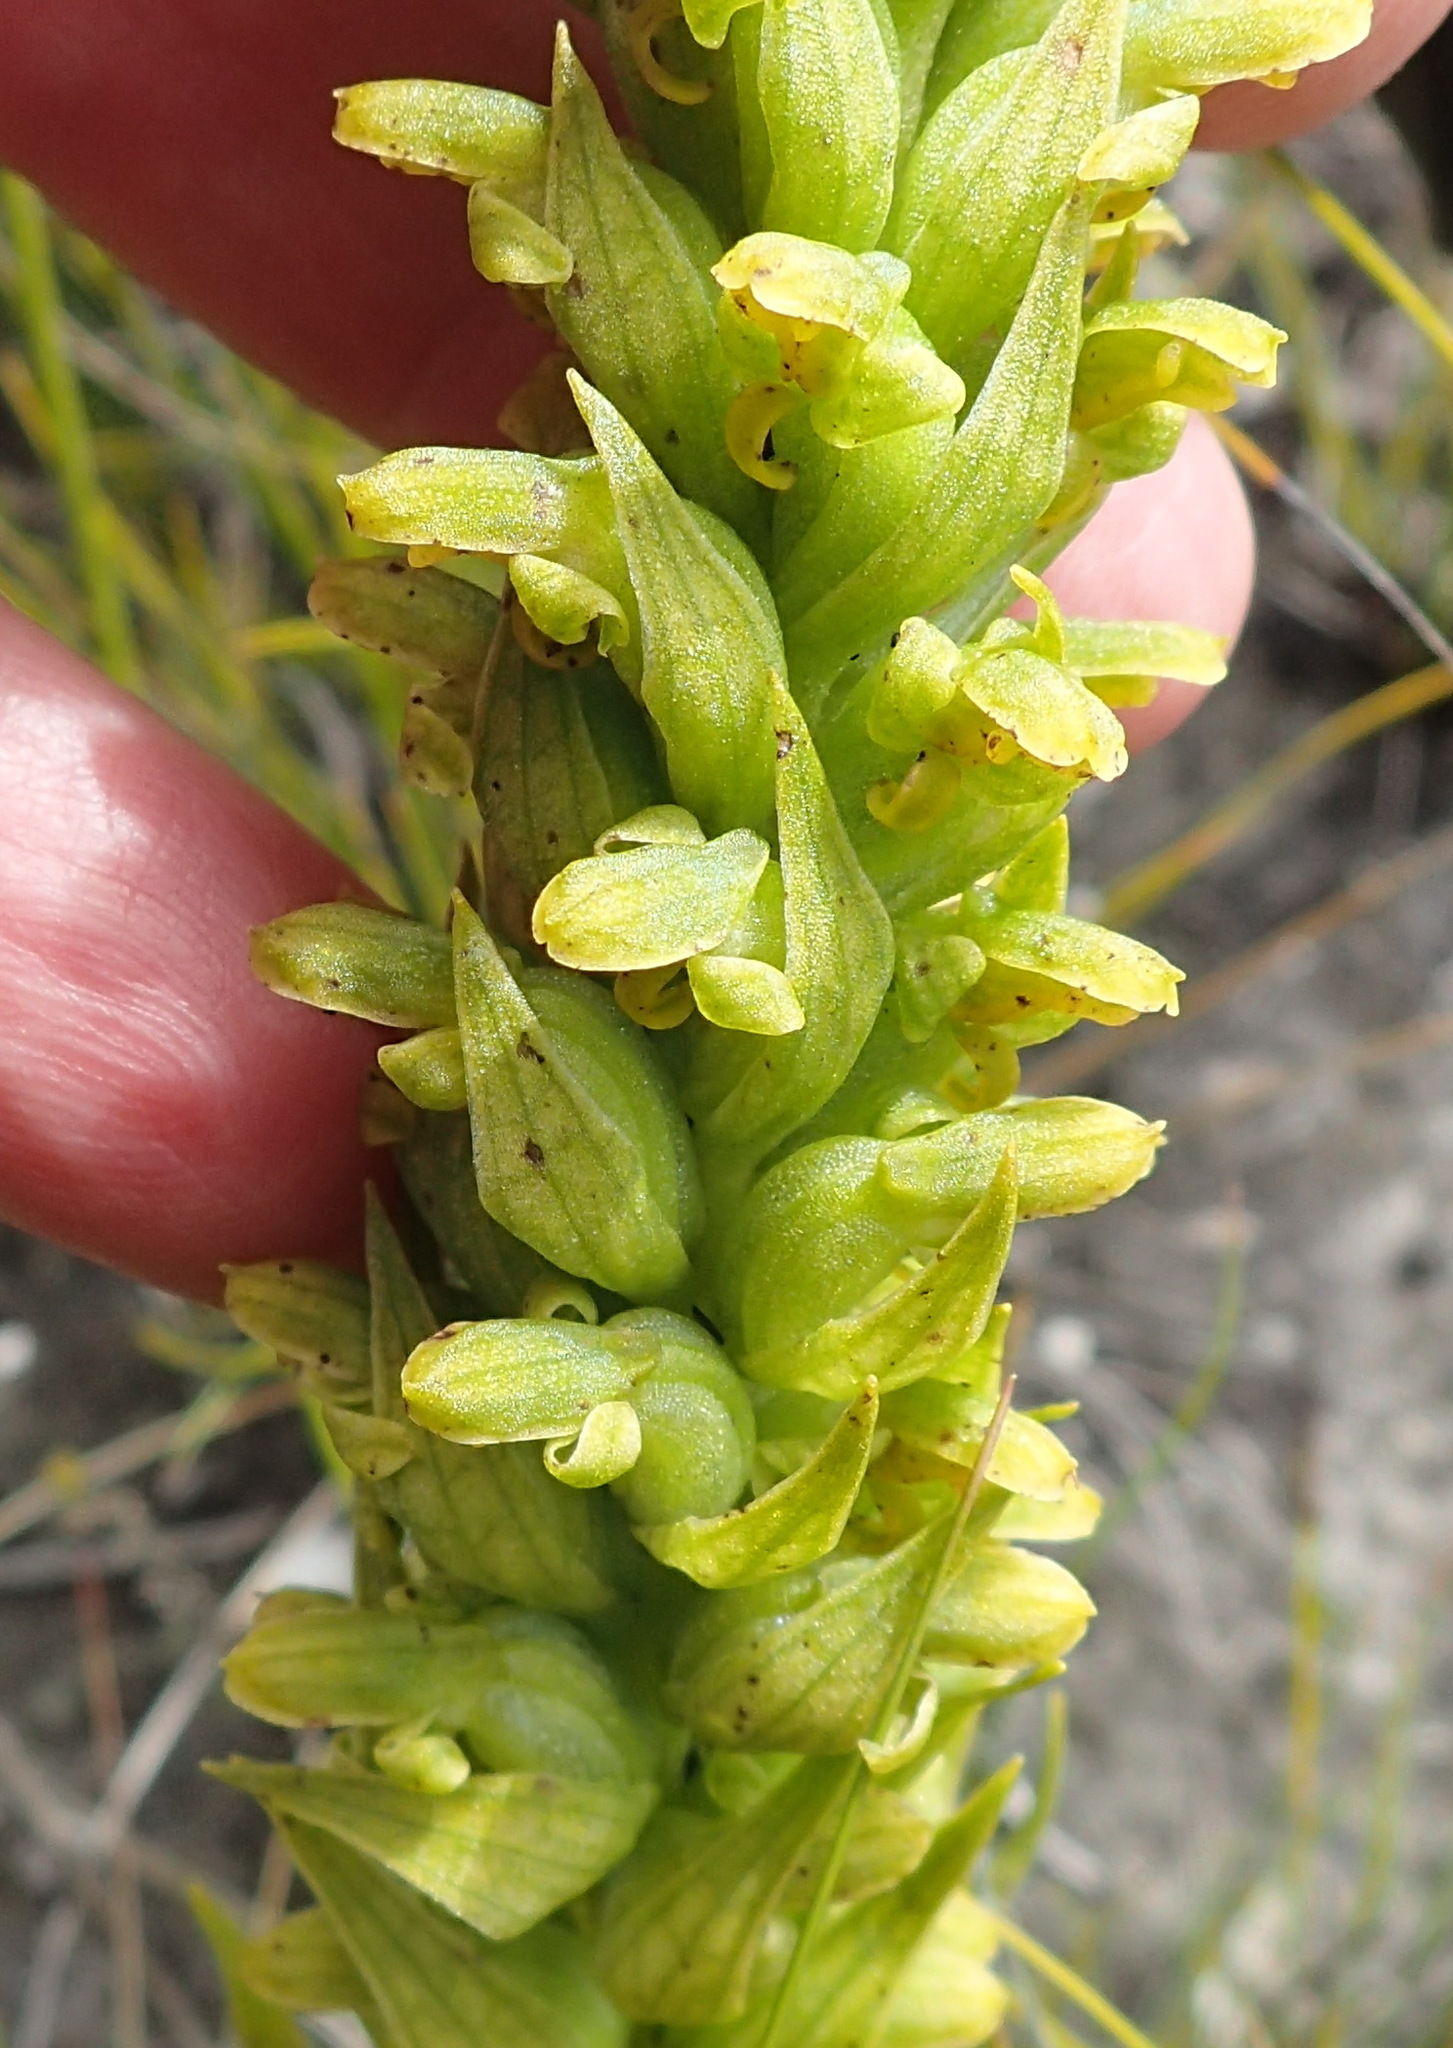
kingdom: Plantae
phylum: Tracheophyta
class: Liliopsida
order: Asparagales
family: Orchidaceae
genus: Disa
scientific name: Disa cylindrica
